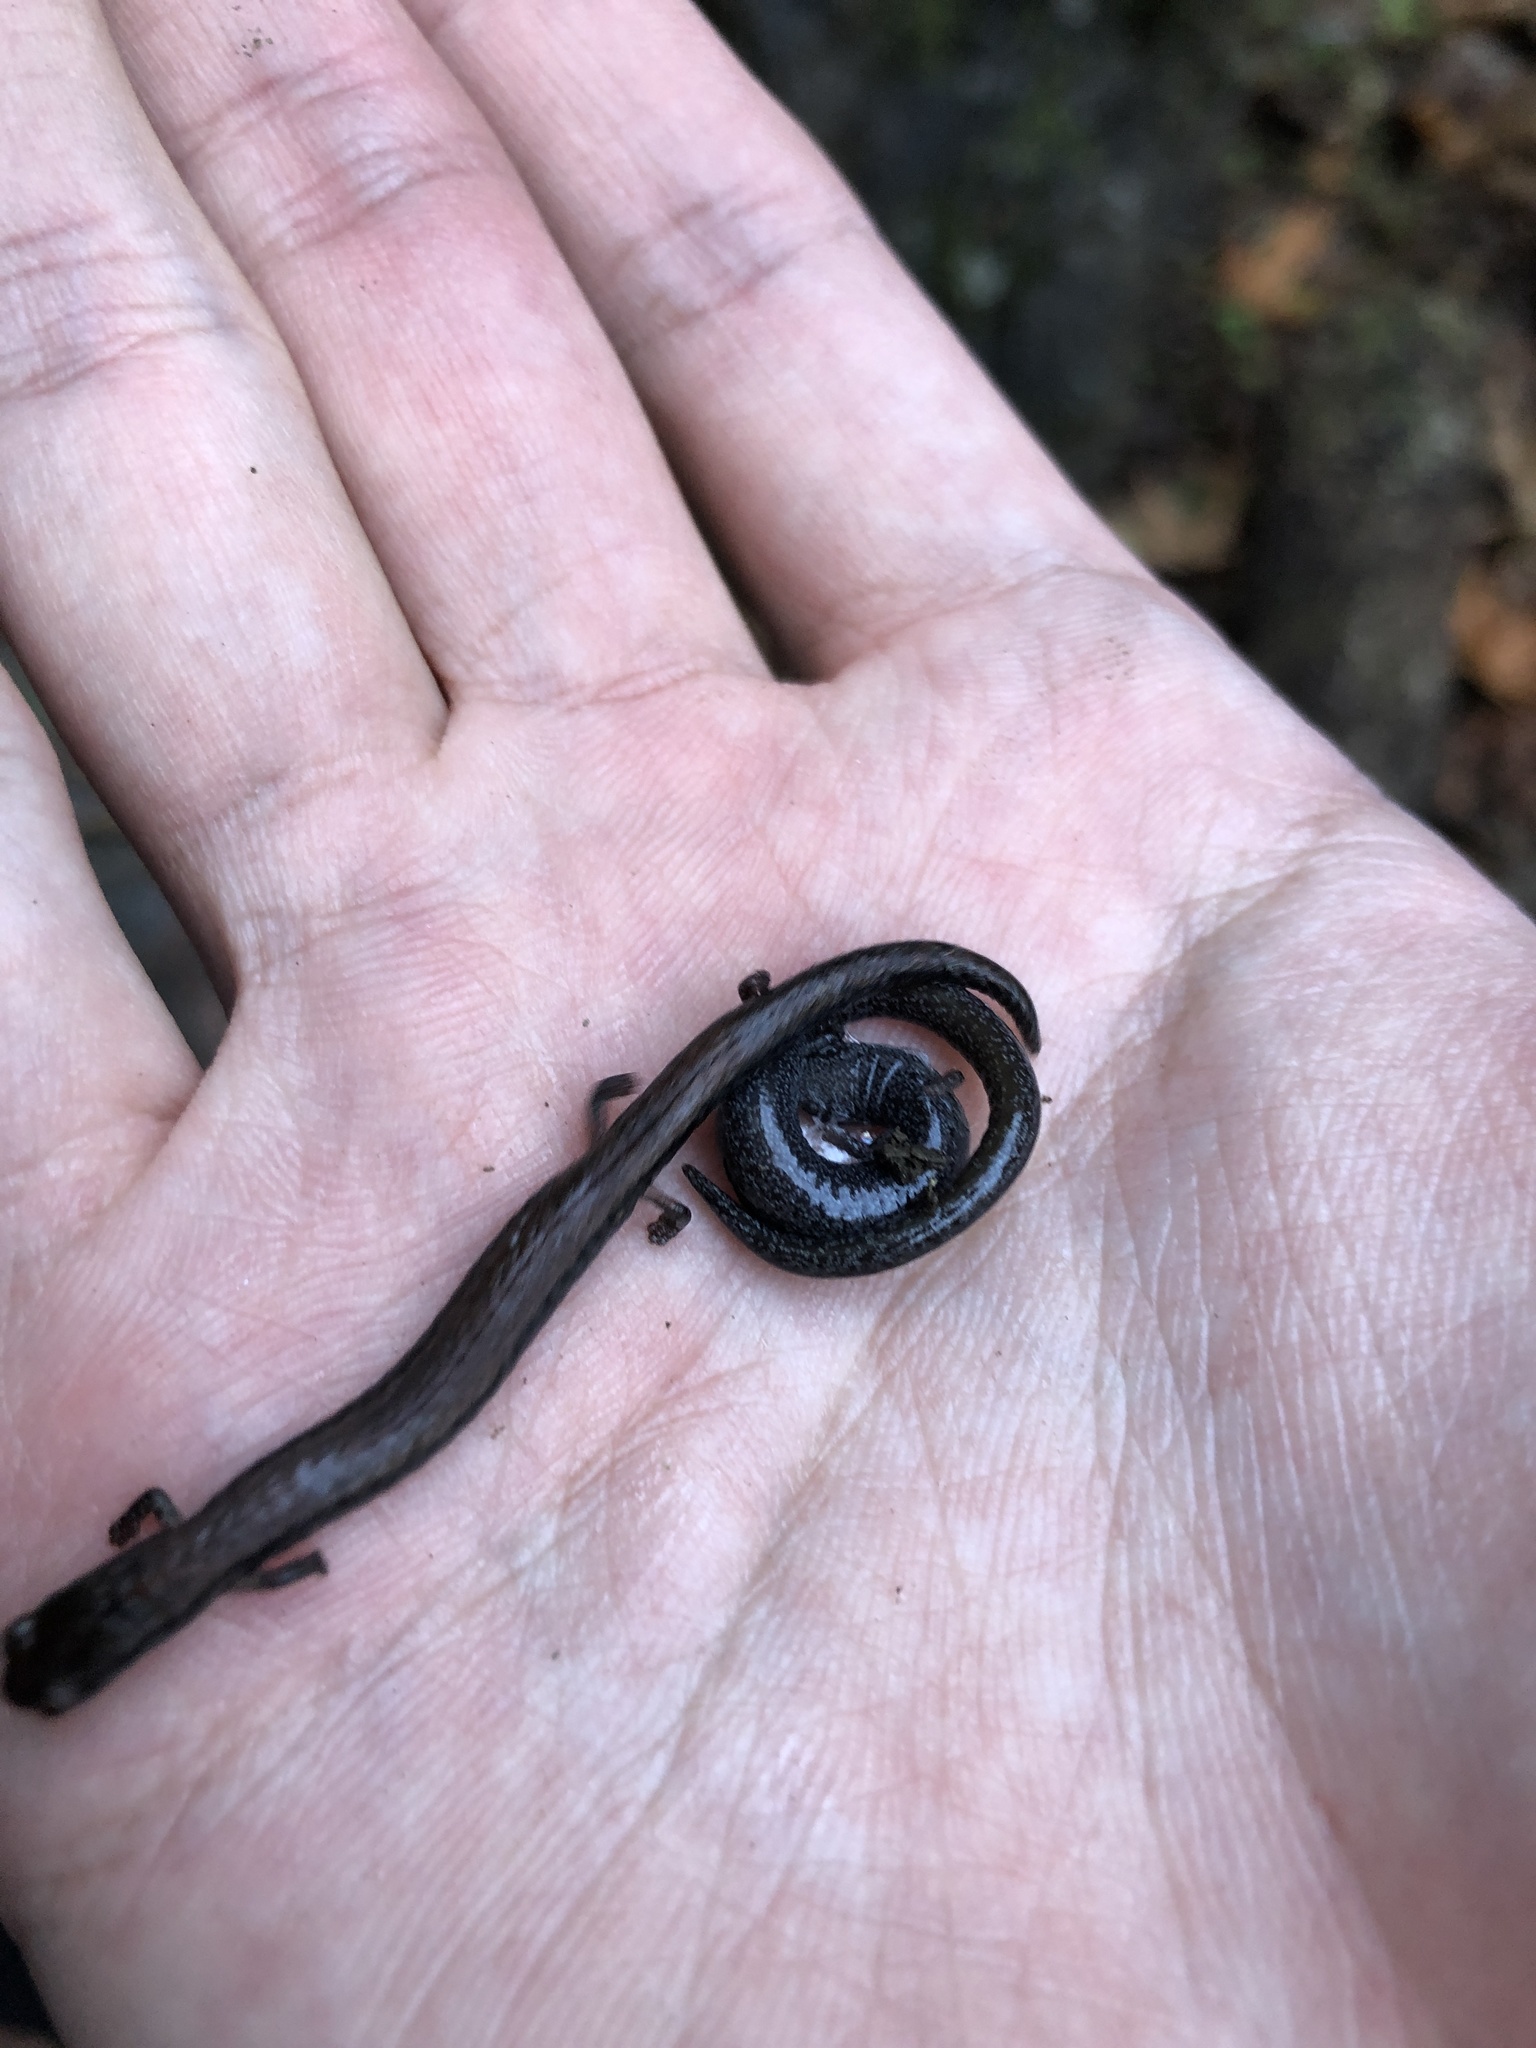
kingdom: Animalia
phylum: Chordata
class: Amphibia
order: Caudata
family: Plethodontidae
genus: Batrachoseps
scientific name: Batrachoseps attenuatus
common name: California slender salamander
